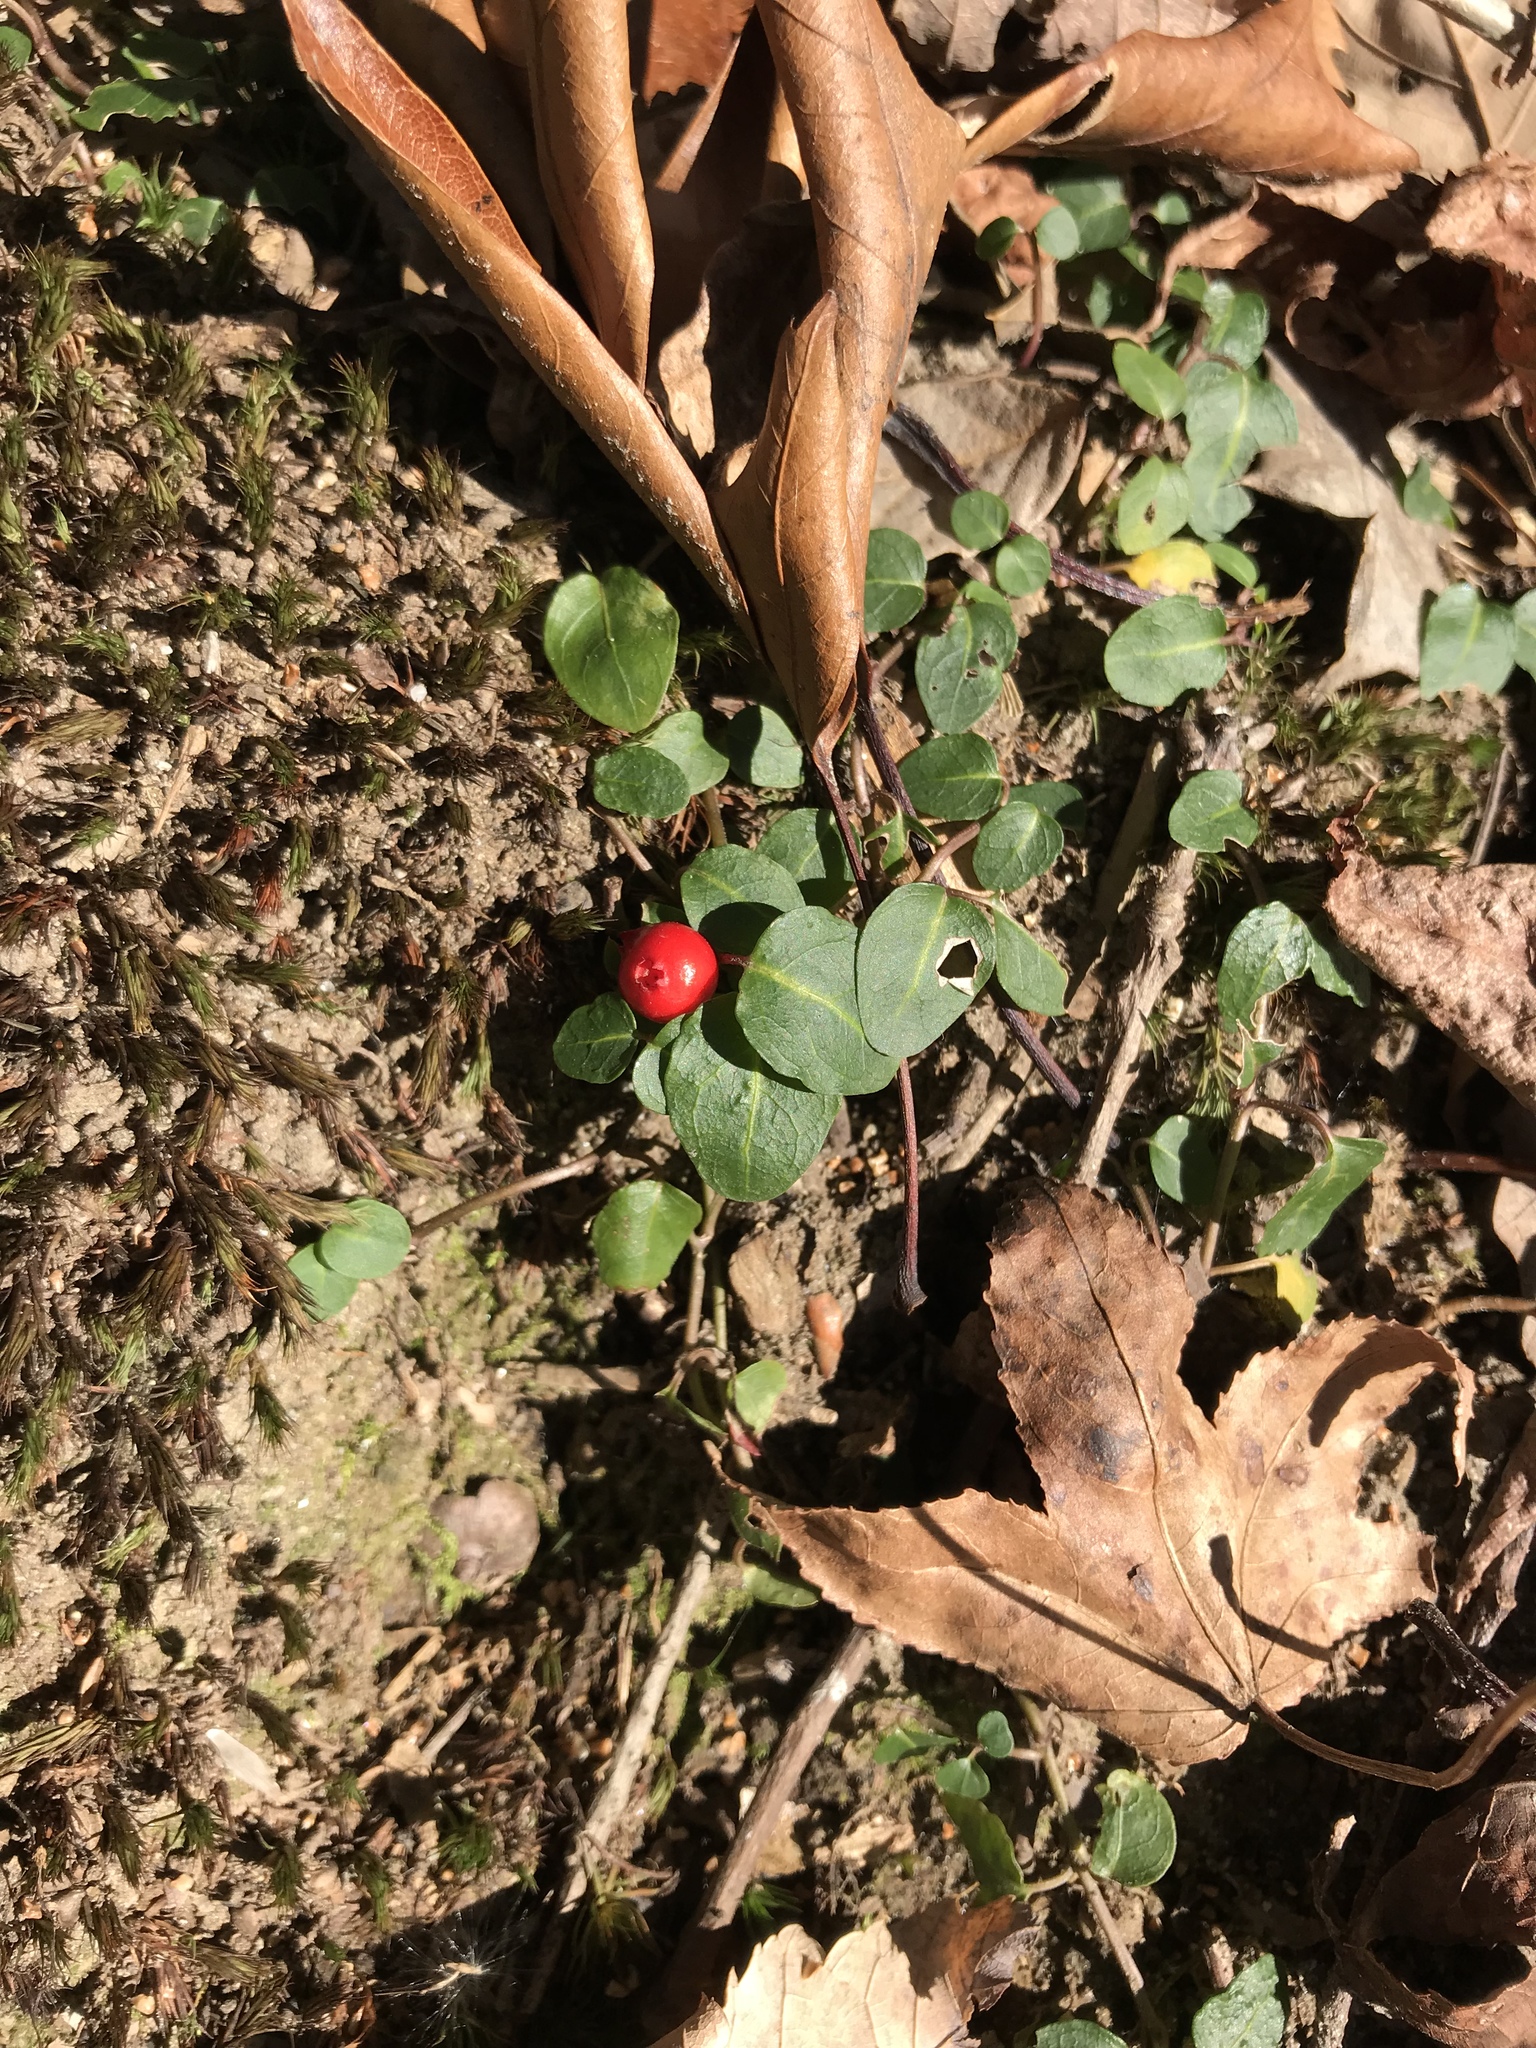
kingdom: Plantae
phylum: Tracheophyta
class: Magnoliopsida
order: Gentianales
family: Rubiaceae
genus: Mitchella
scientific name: Mitchella repens
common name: Partridge-berry
